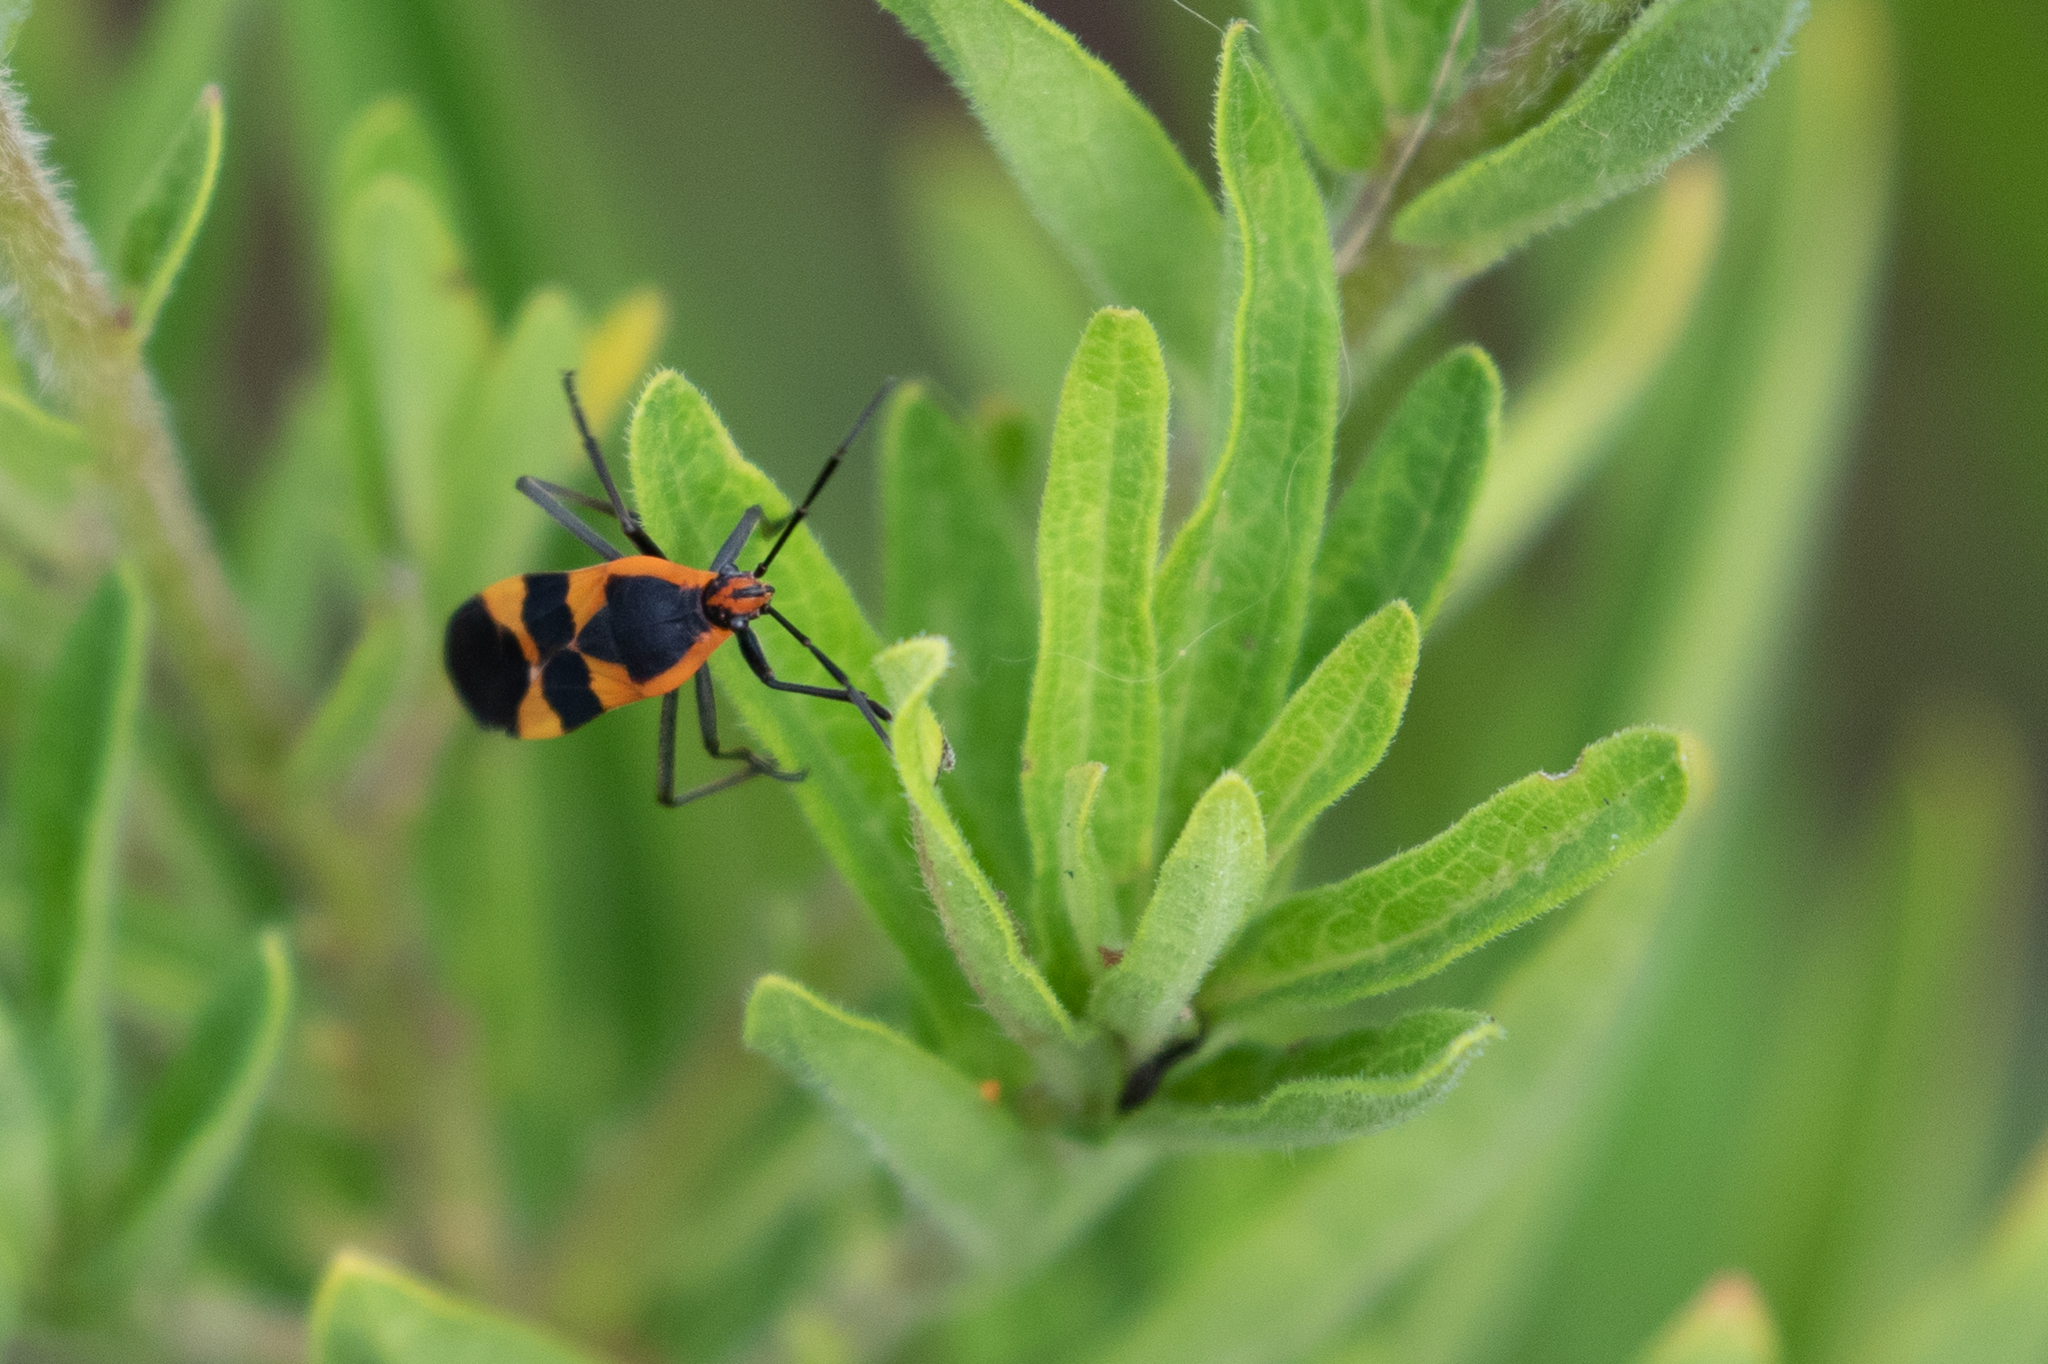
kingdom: Animalia
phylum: Arthropoda
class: Insecta
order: Hemiptera
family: Lygaeidae
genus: Oncopeltus
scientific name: Oncopeltus fasciatus
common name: Large milkweed bug
